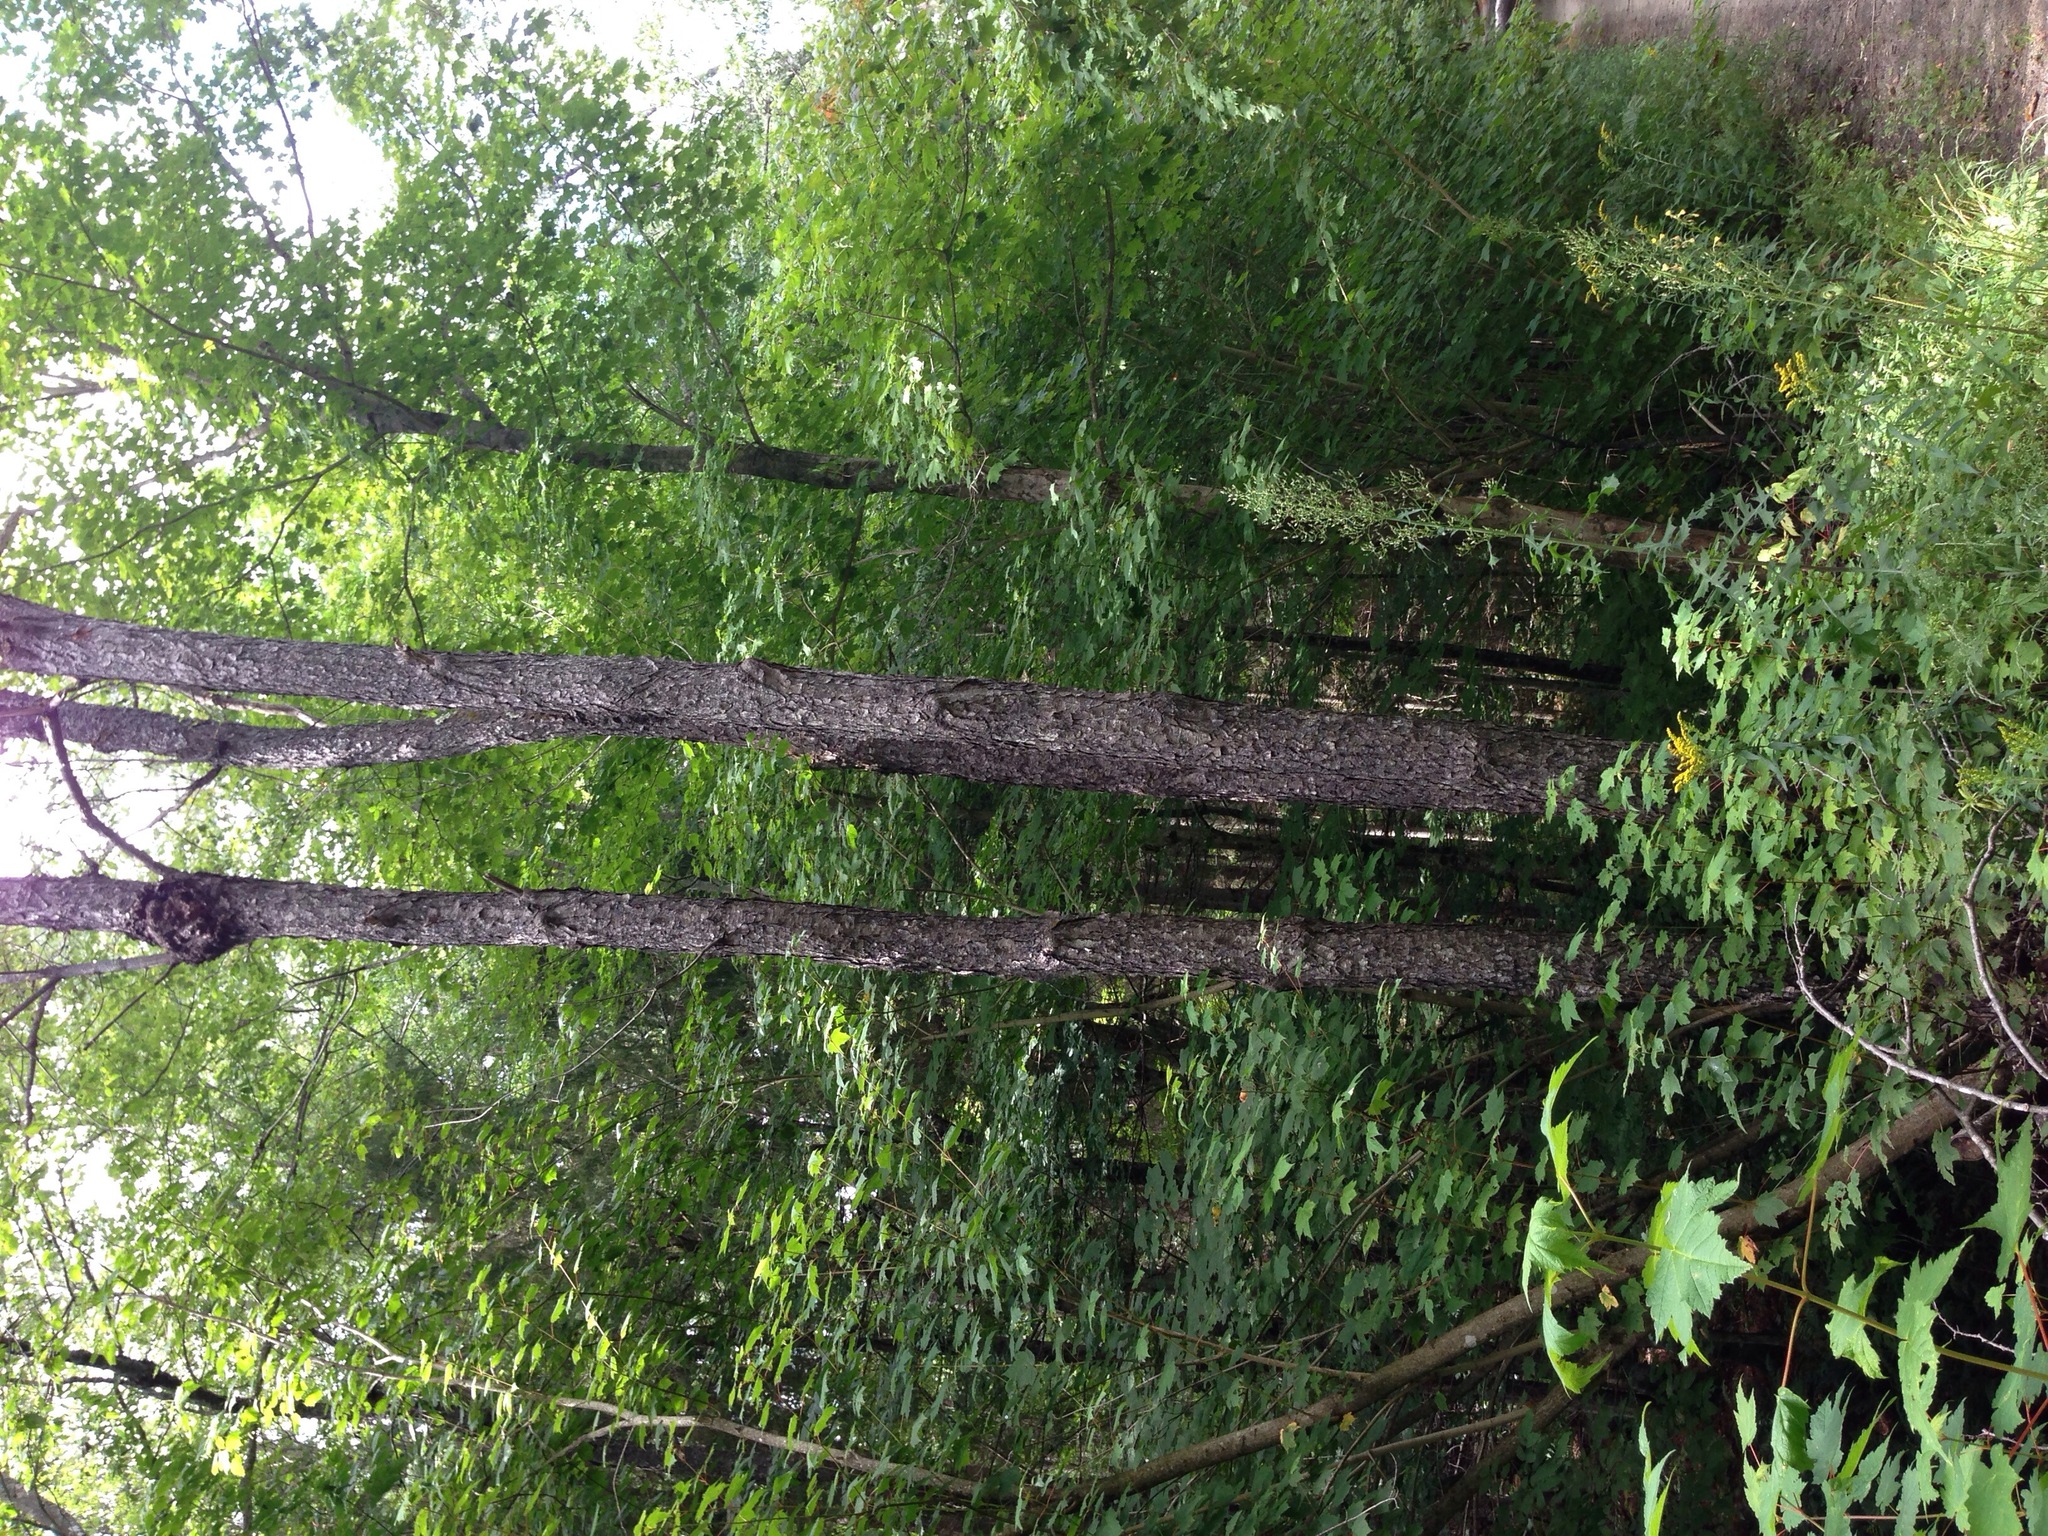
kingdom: Plantae
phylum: Tracheophyta
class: Magnoliopsida
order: Rosales
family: Rosaceae
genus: Prunus
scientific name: Prunus serotina
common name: Black cherry
